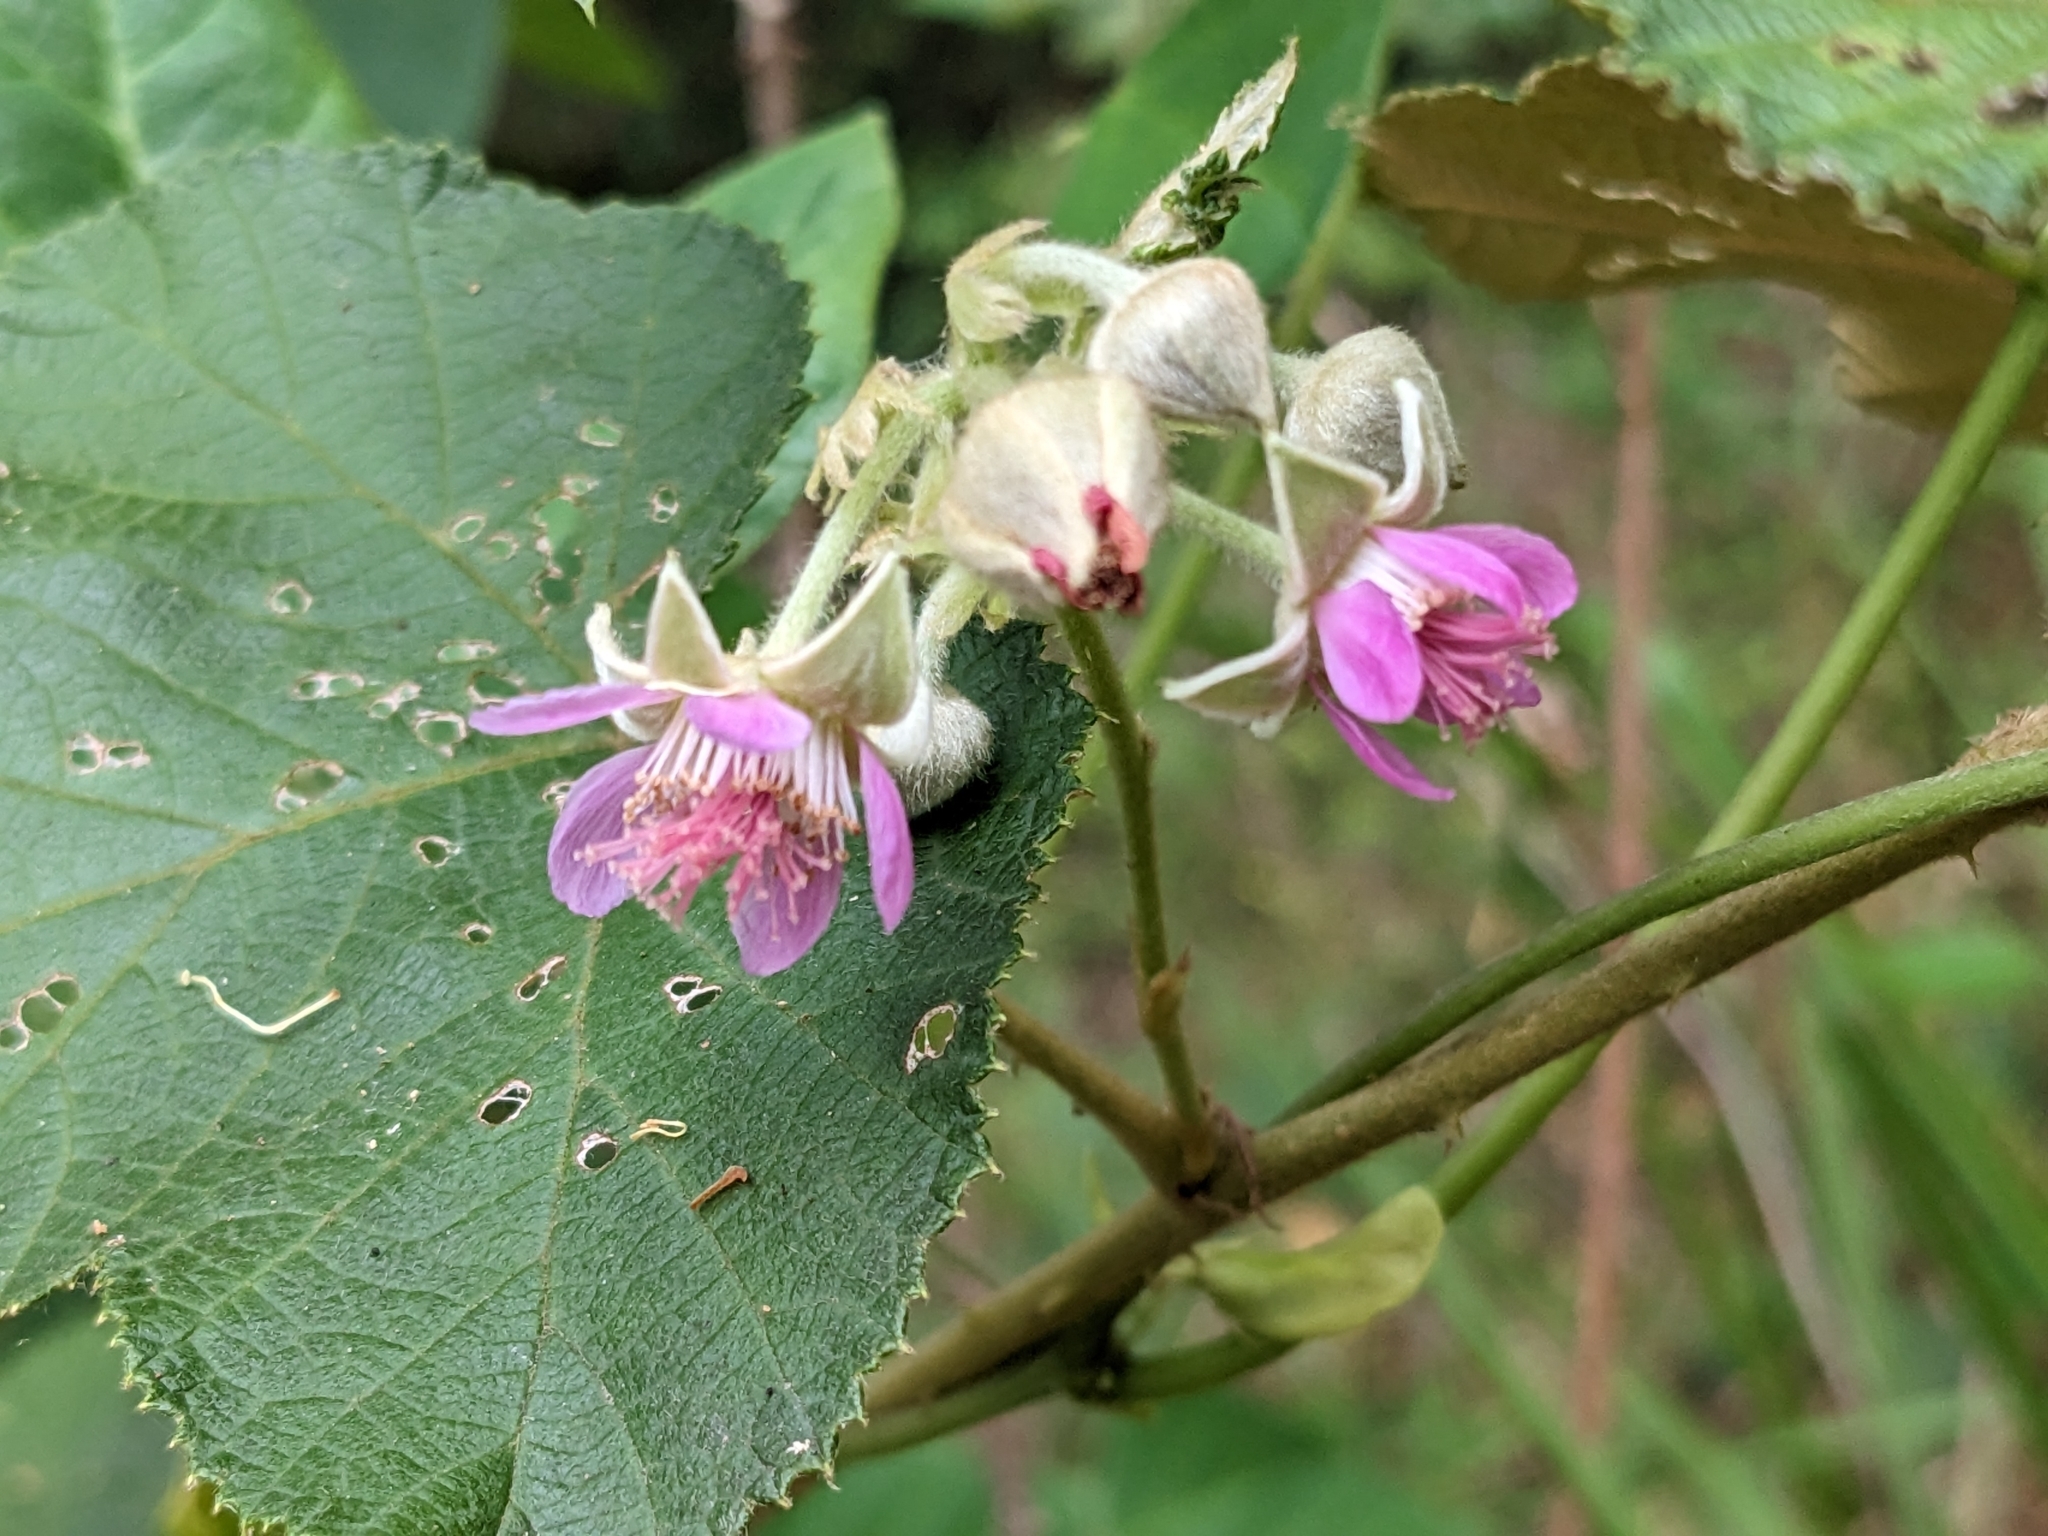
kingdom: Plantae
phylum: Tracheophyta
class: Magnoliopsida
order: Rosales
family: Rosaceae
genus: Rubus
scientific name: Rubus moluccanus
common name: Wild raspberry
